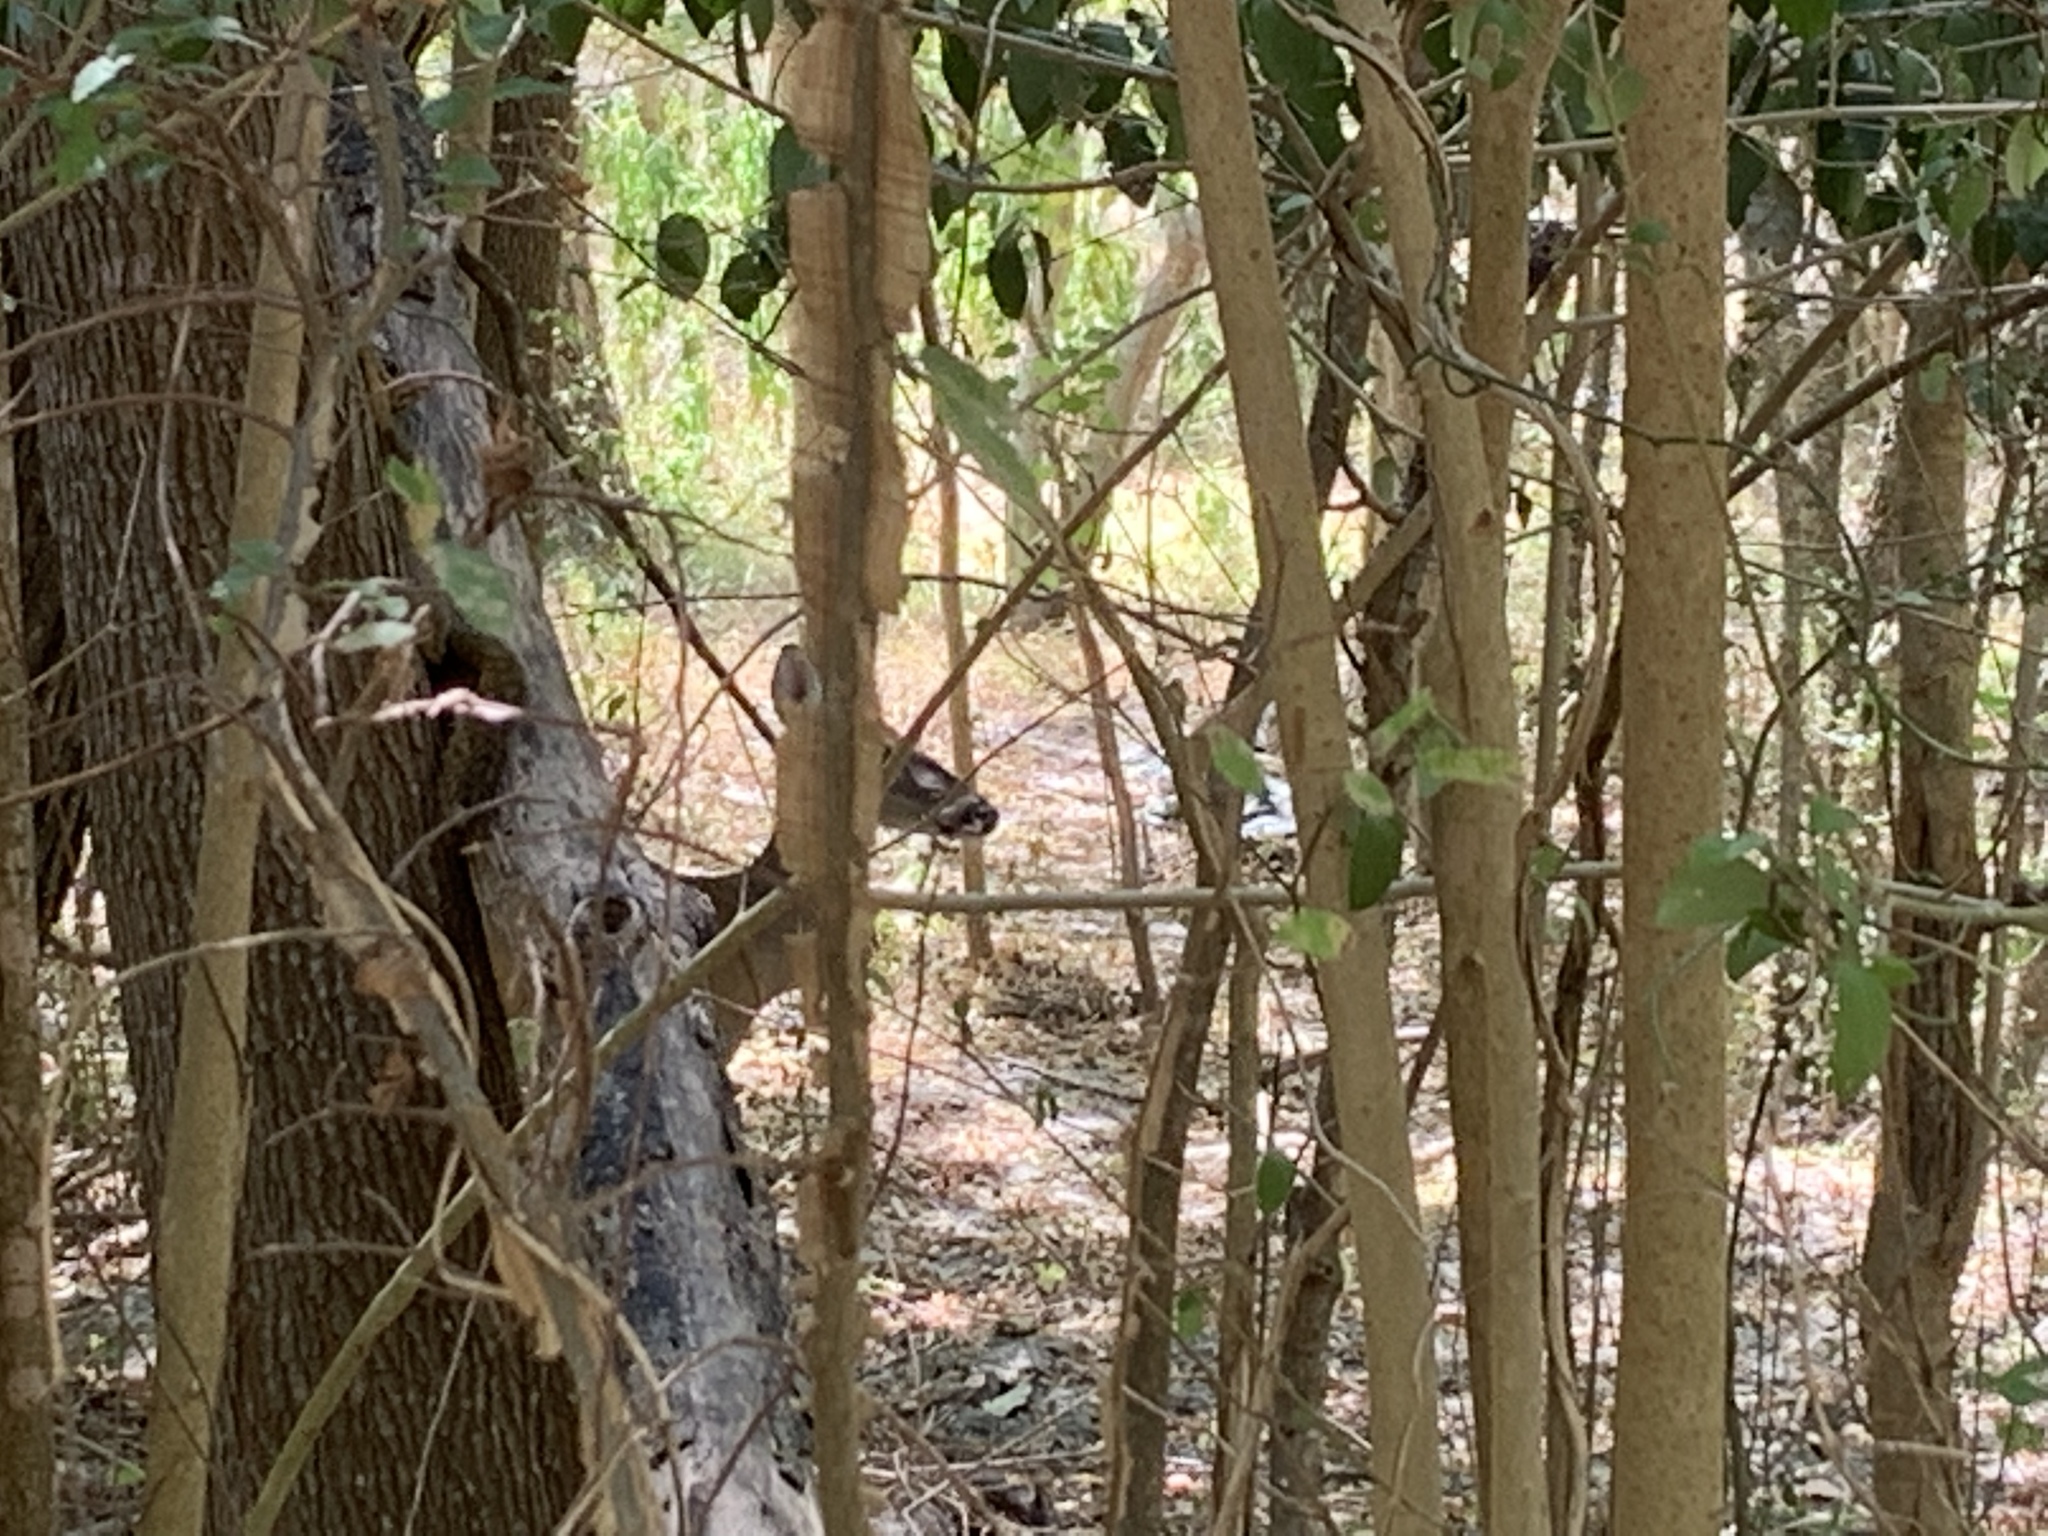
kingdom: Animalia
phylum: Chordata
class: Mammalia
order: Artiodactyla
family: Cervidae
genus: Odocoileus
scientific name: Odocoileus virginianus
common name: White-tailed deer
